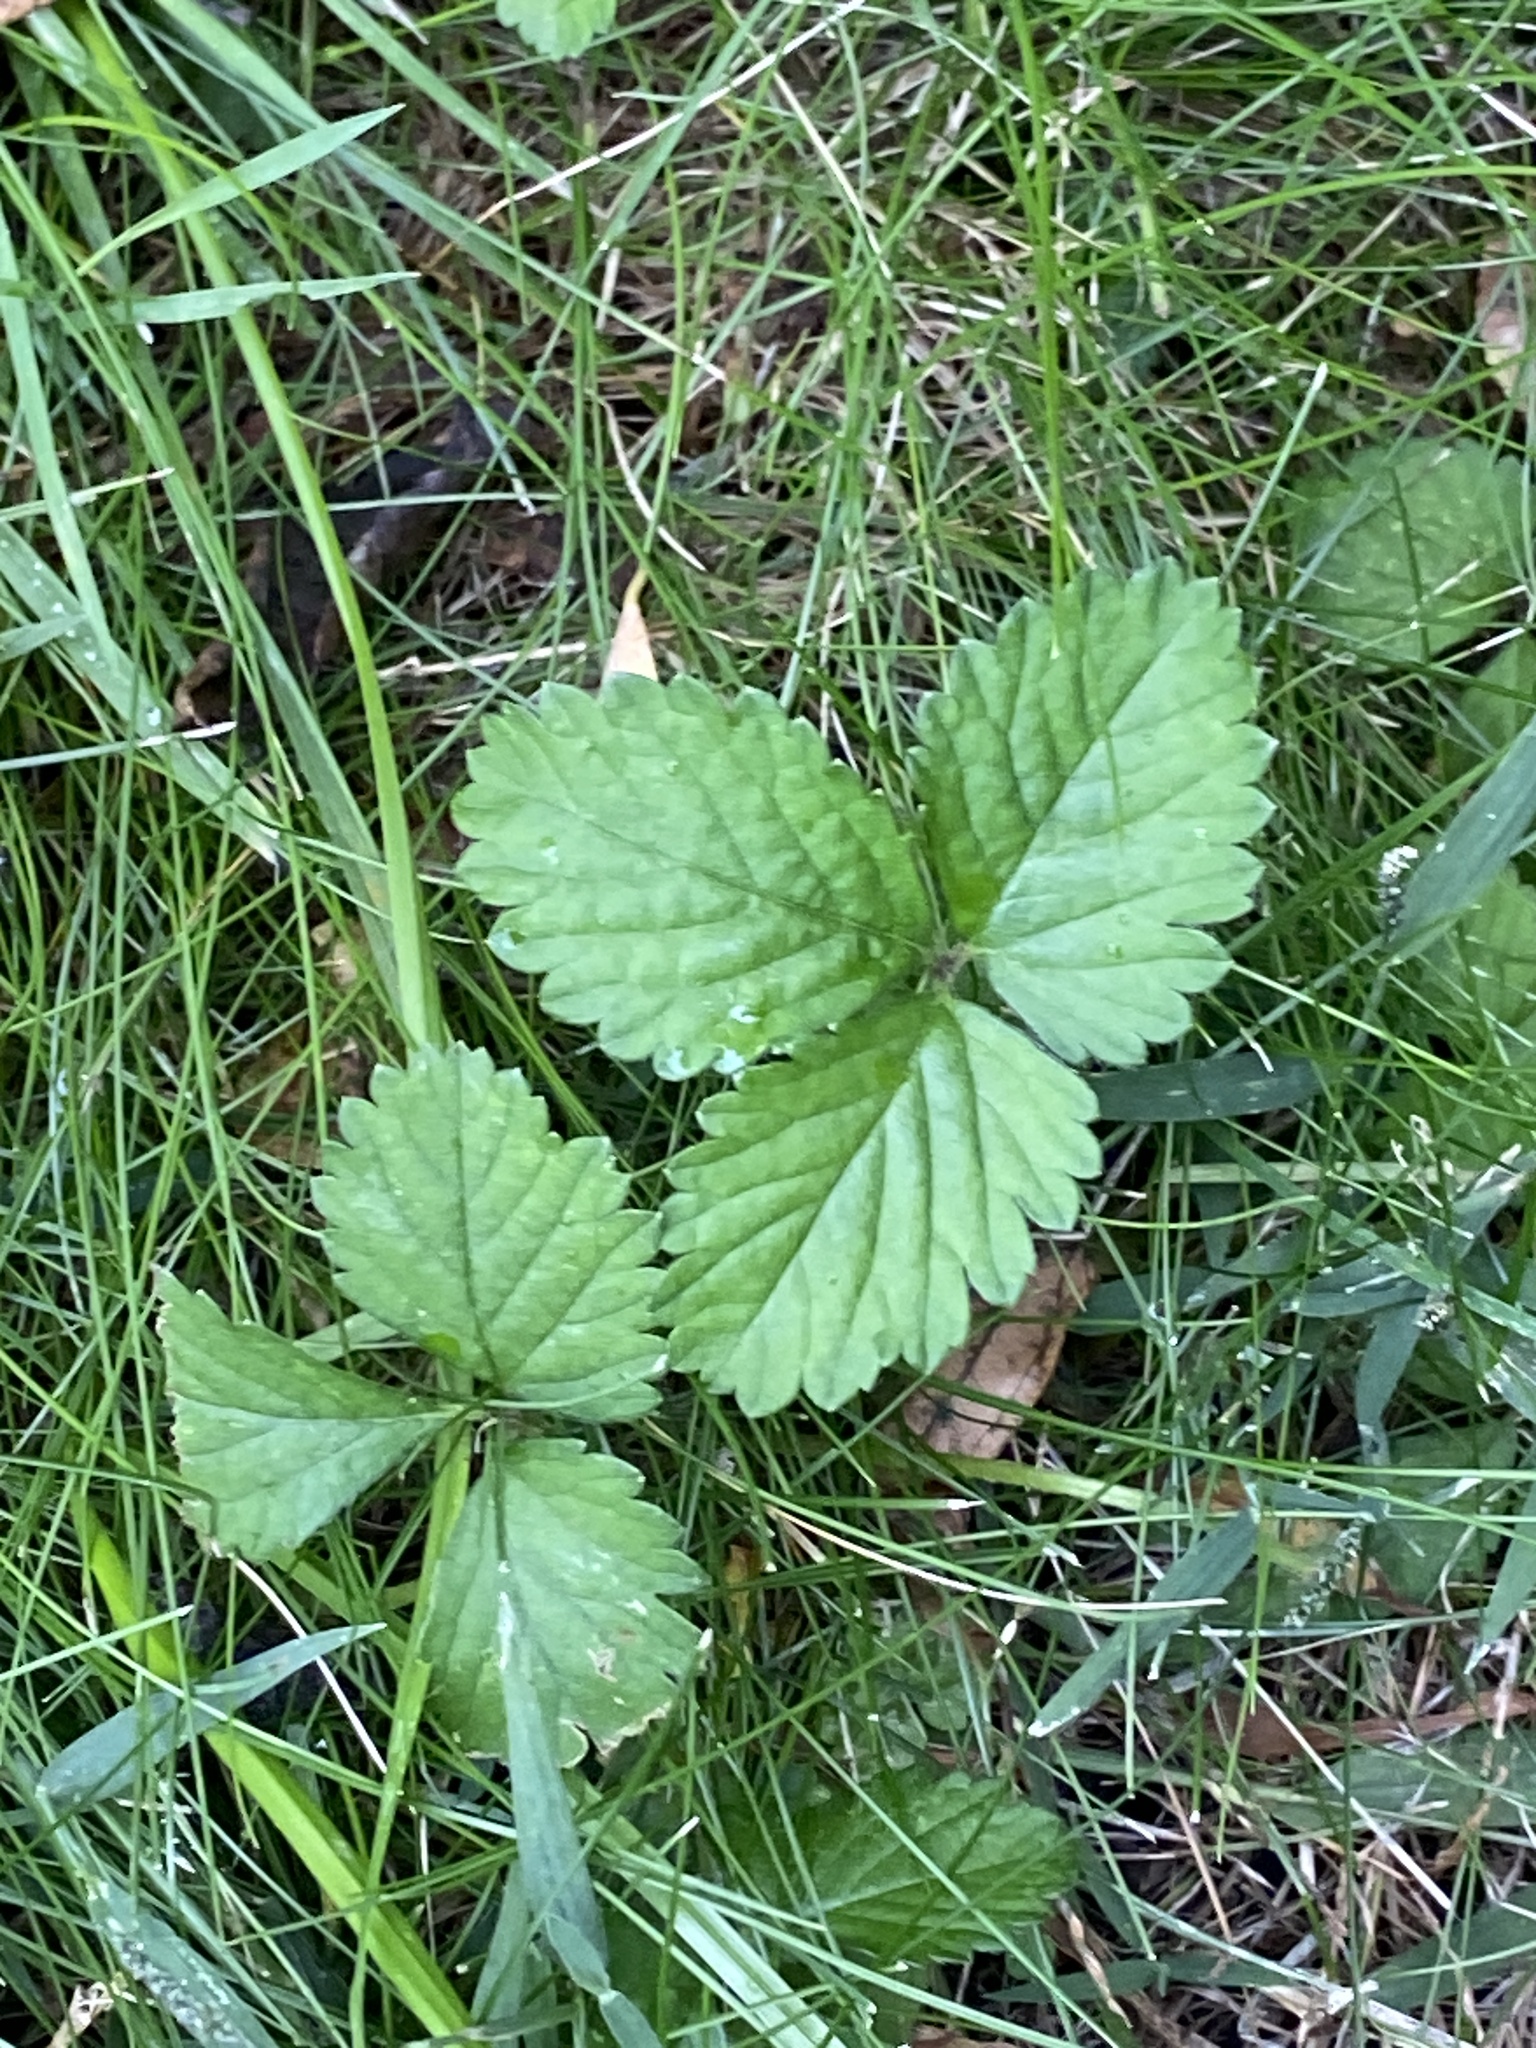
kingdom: Plantae
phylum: Tracheophyta
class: Magnoliopsida
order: Rosales
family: Rosaceae
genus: Potentilla
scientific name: Potentilla indica
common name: Yellow-flowered strawberry
